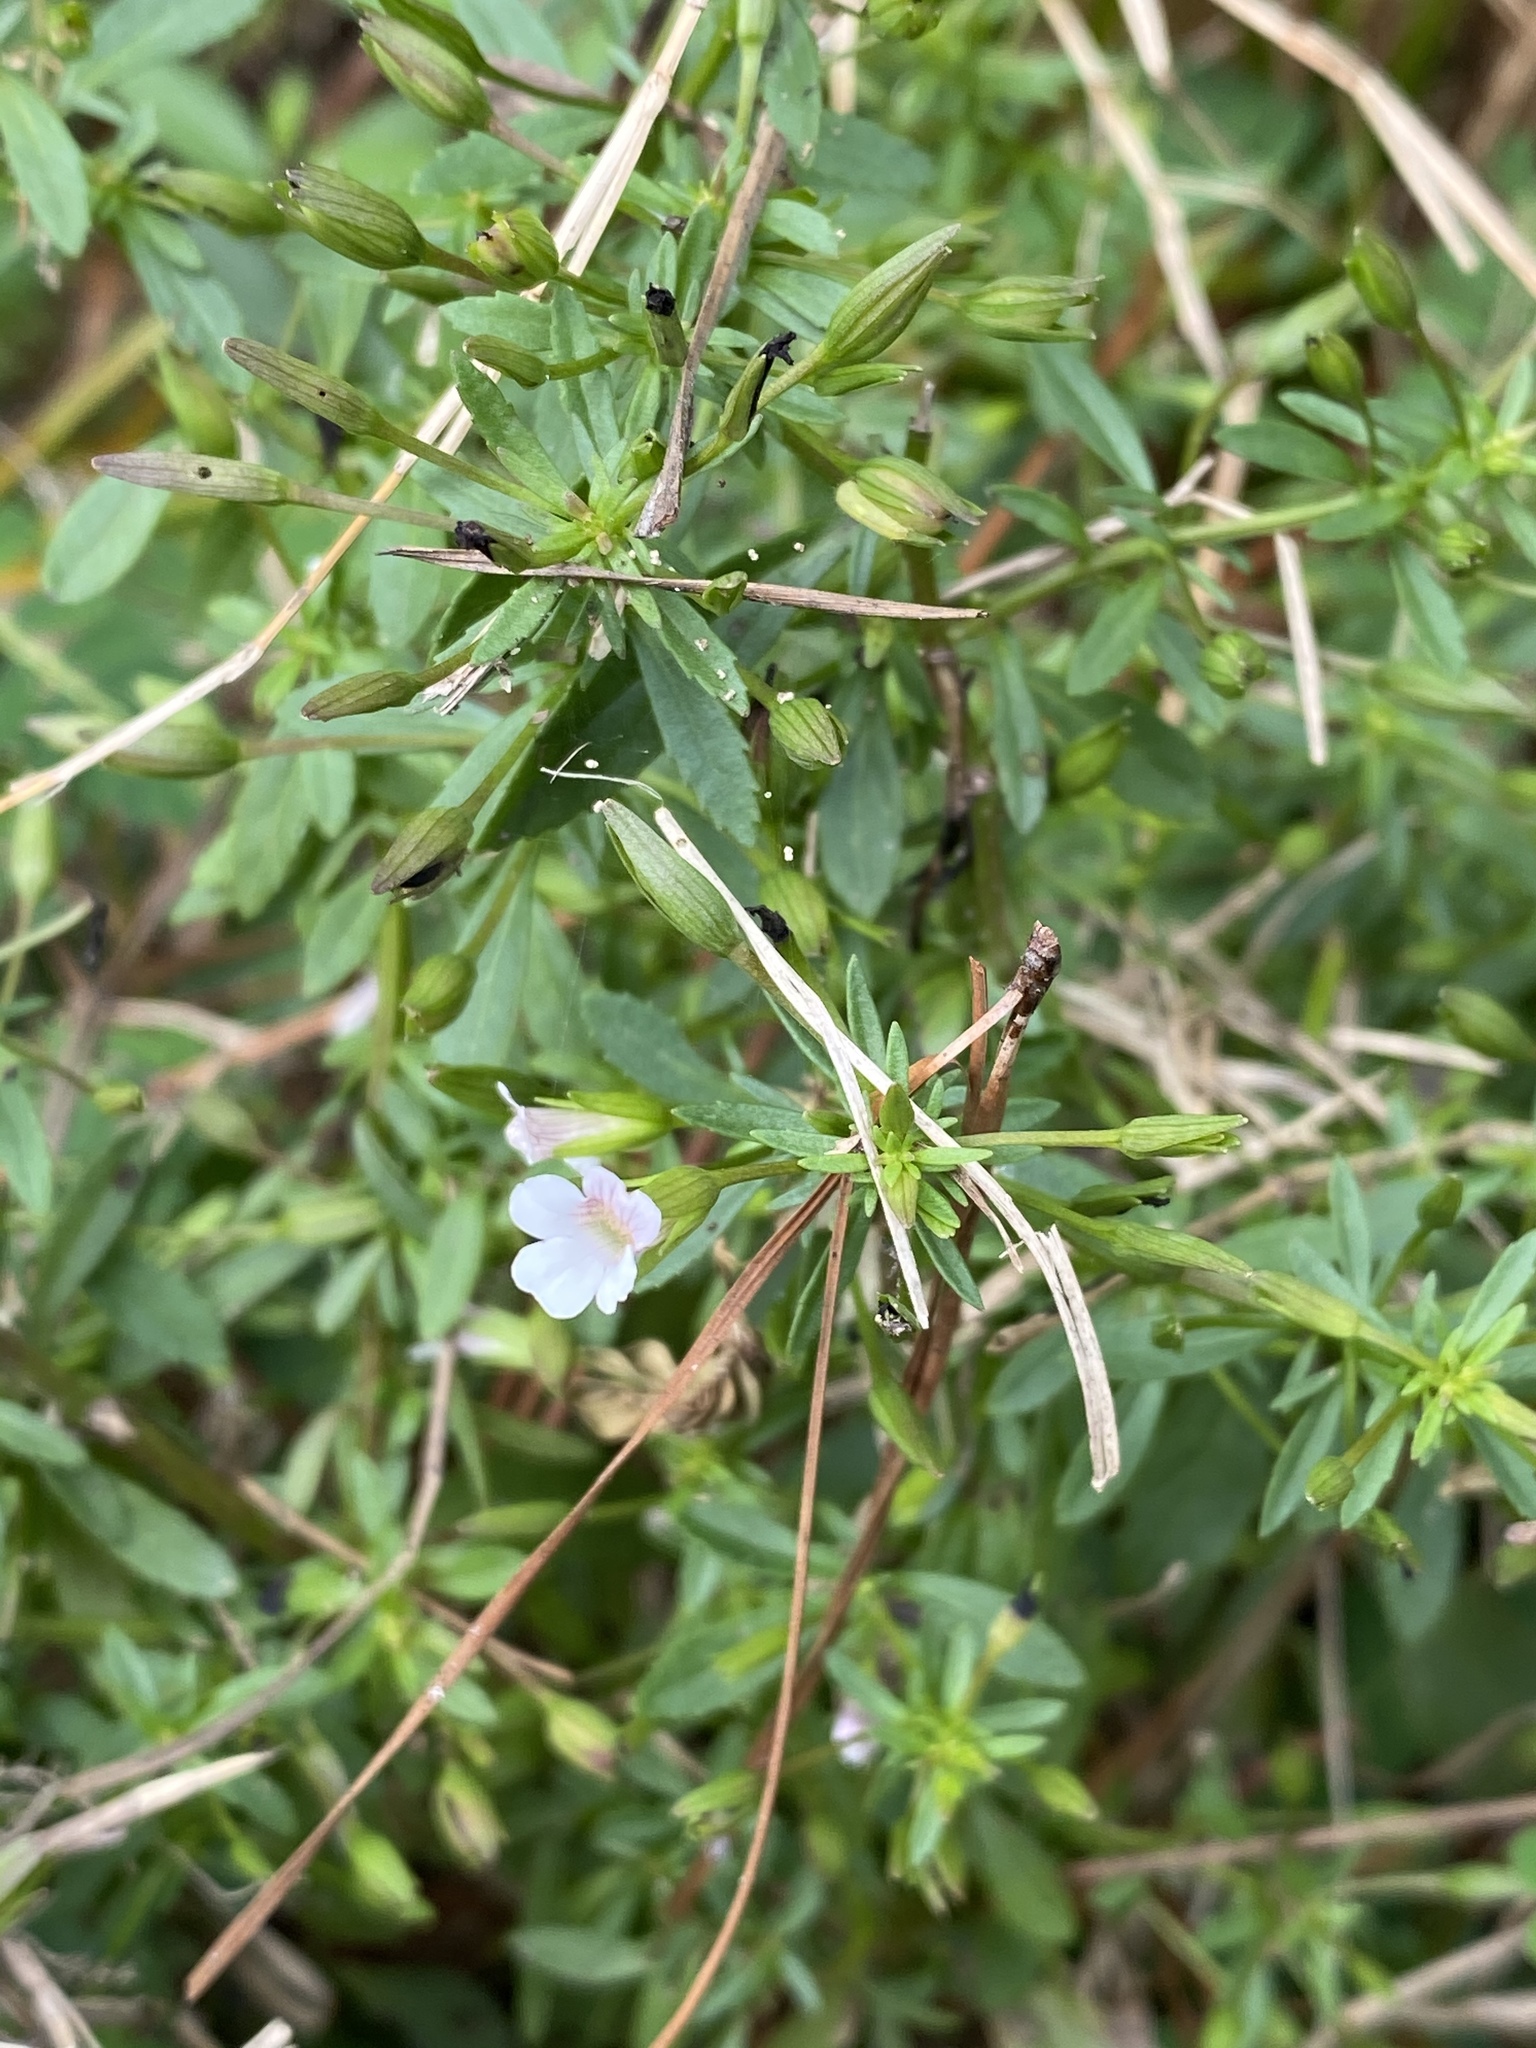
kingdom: Plantae
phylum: Tracheophyta
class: Magnoliopsida
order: Lamiales
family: Plantaginaceae
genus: Mecardonia
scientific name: Mecardonia acuminata
